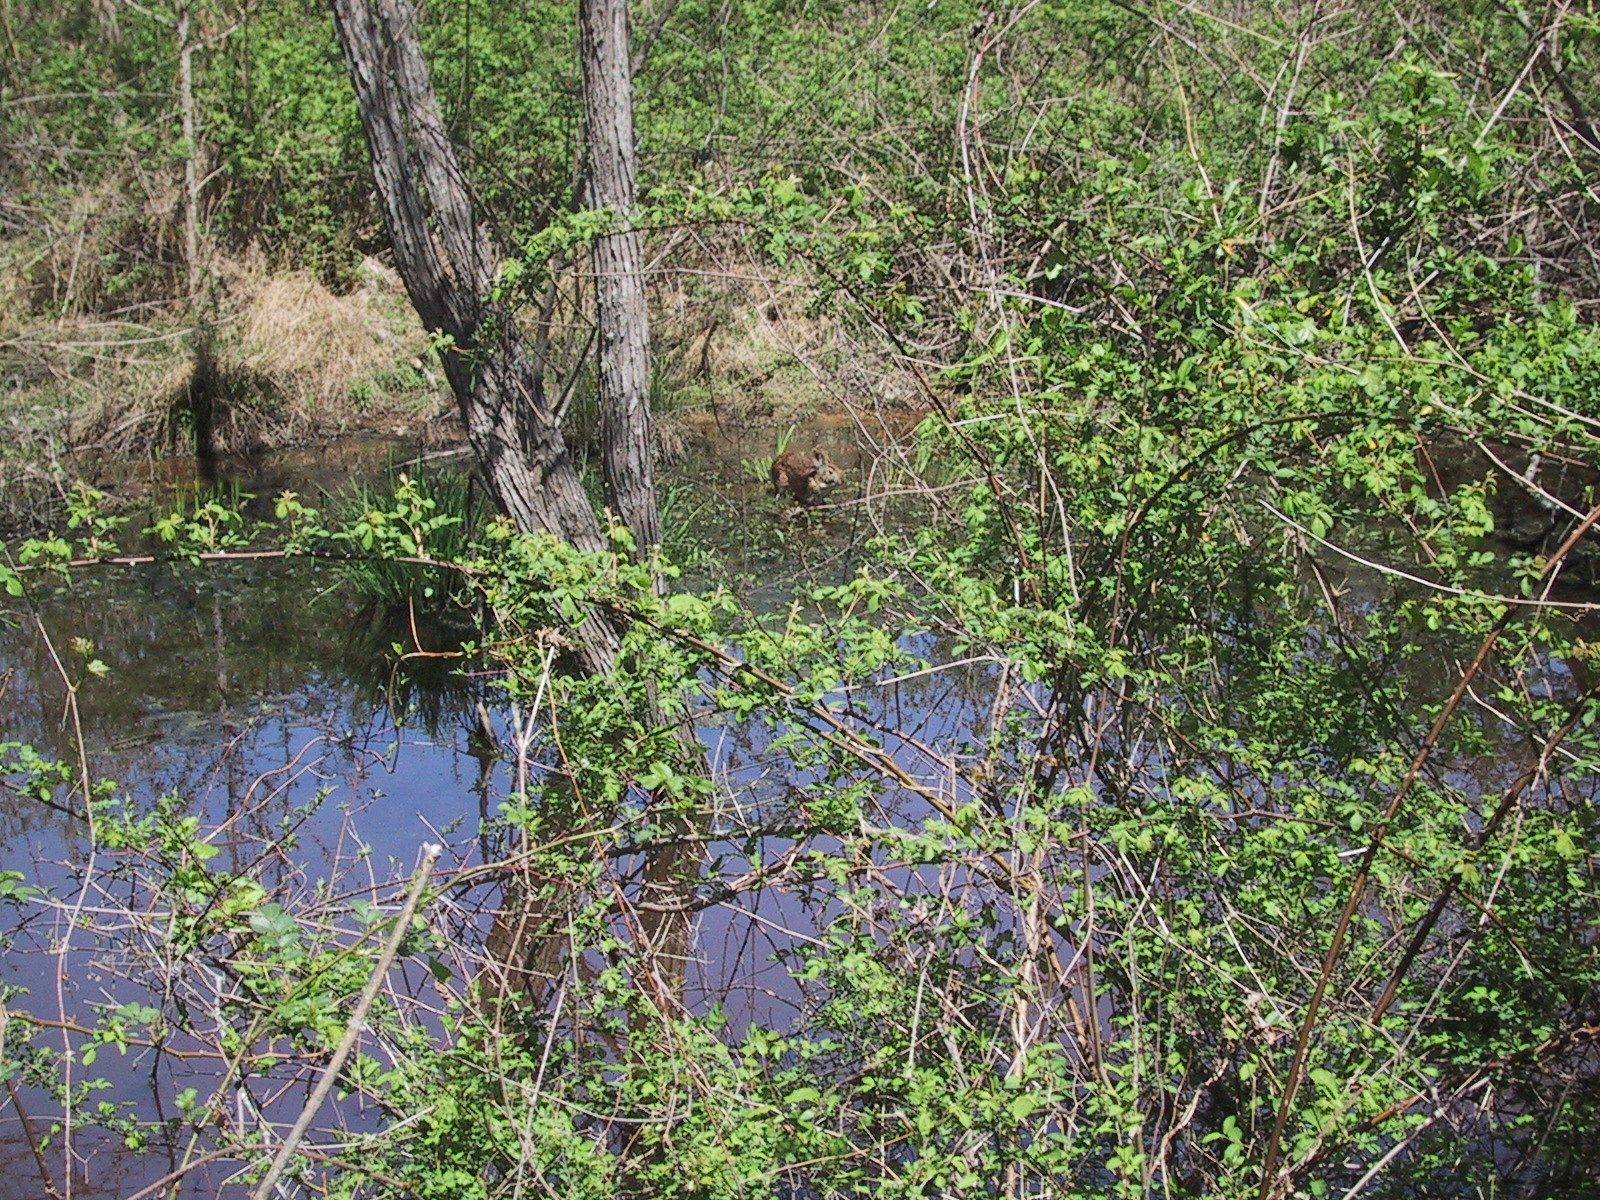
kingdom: Animalia
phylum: Chordata
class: Mammalia
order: Lagomorpha
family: Leporidae
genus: Sylvilagus
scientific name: Sylvilagus palustris
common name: Marsh rabbit
